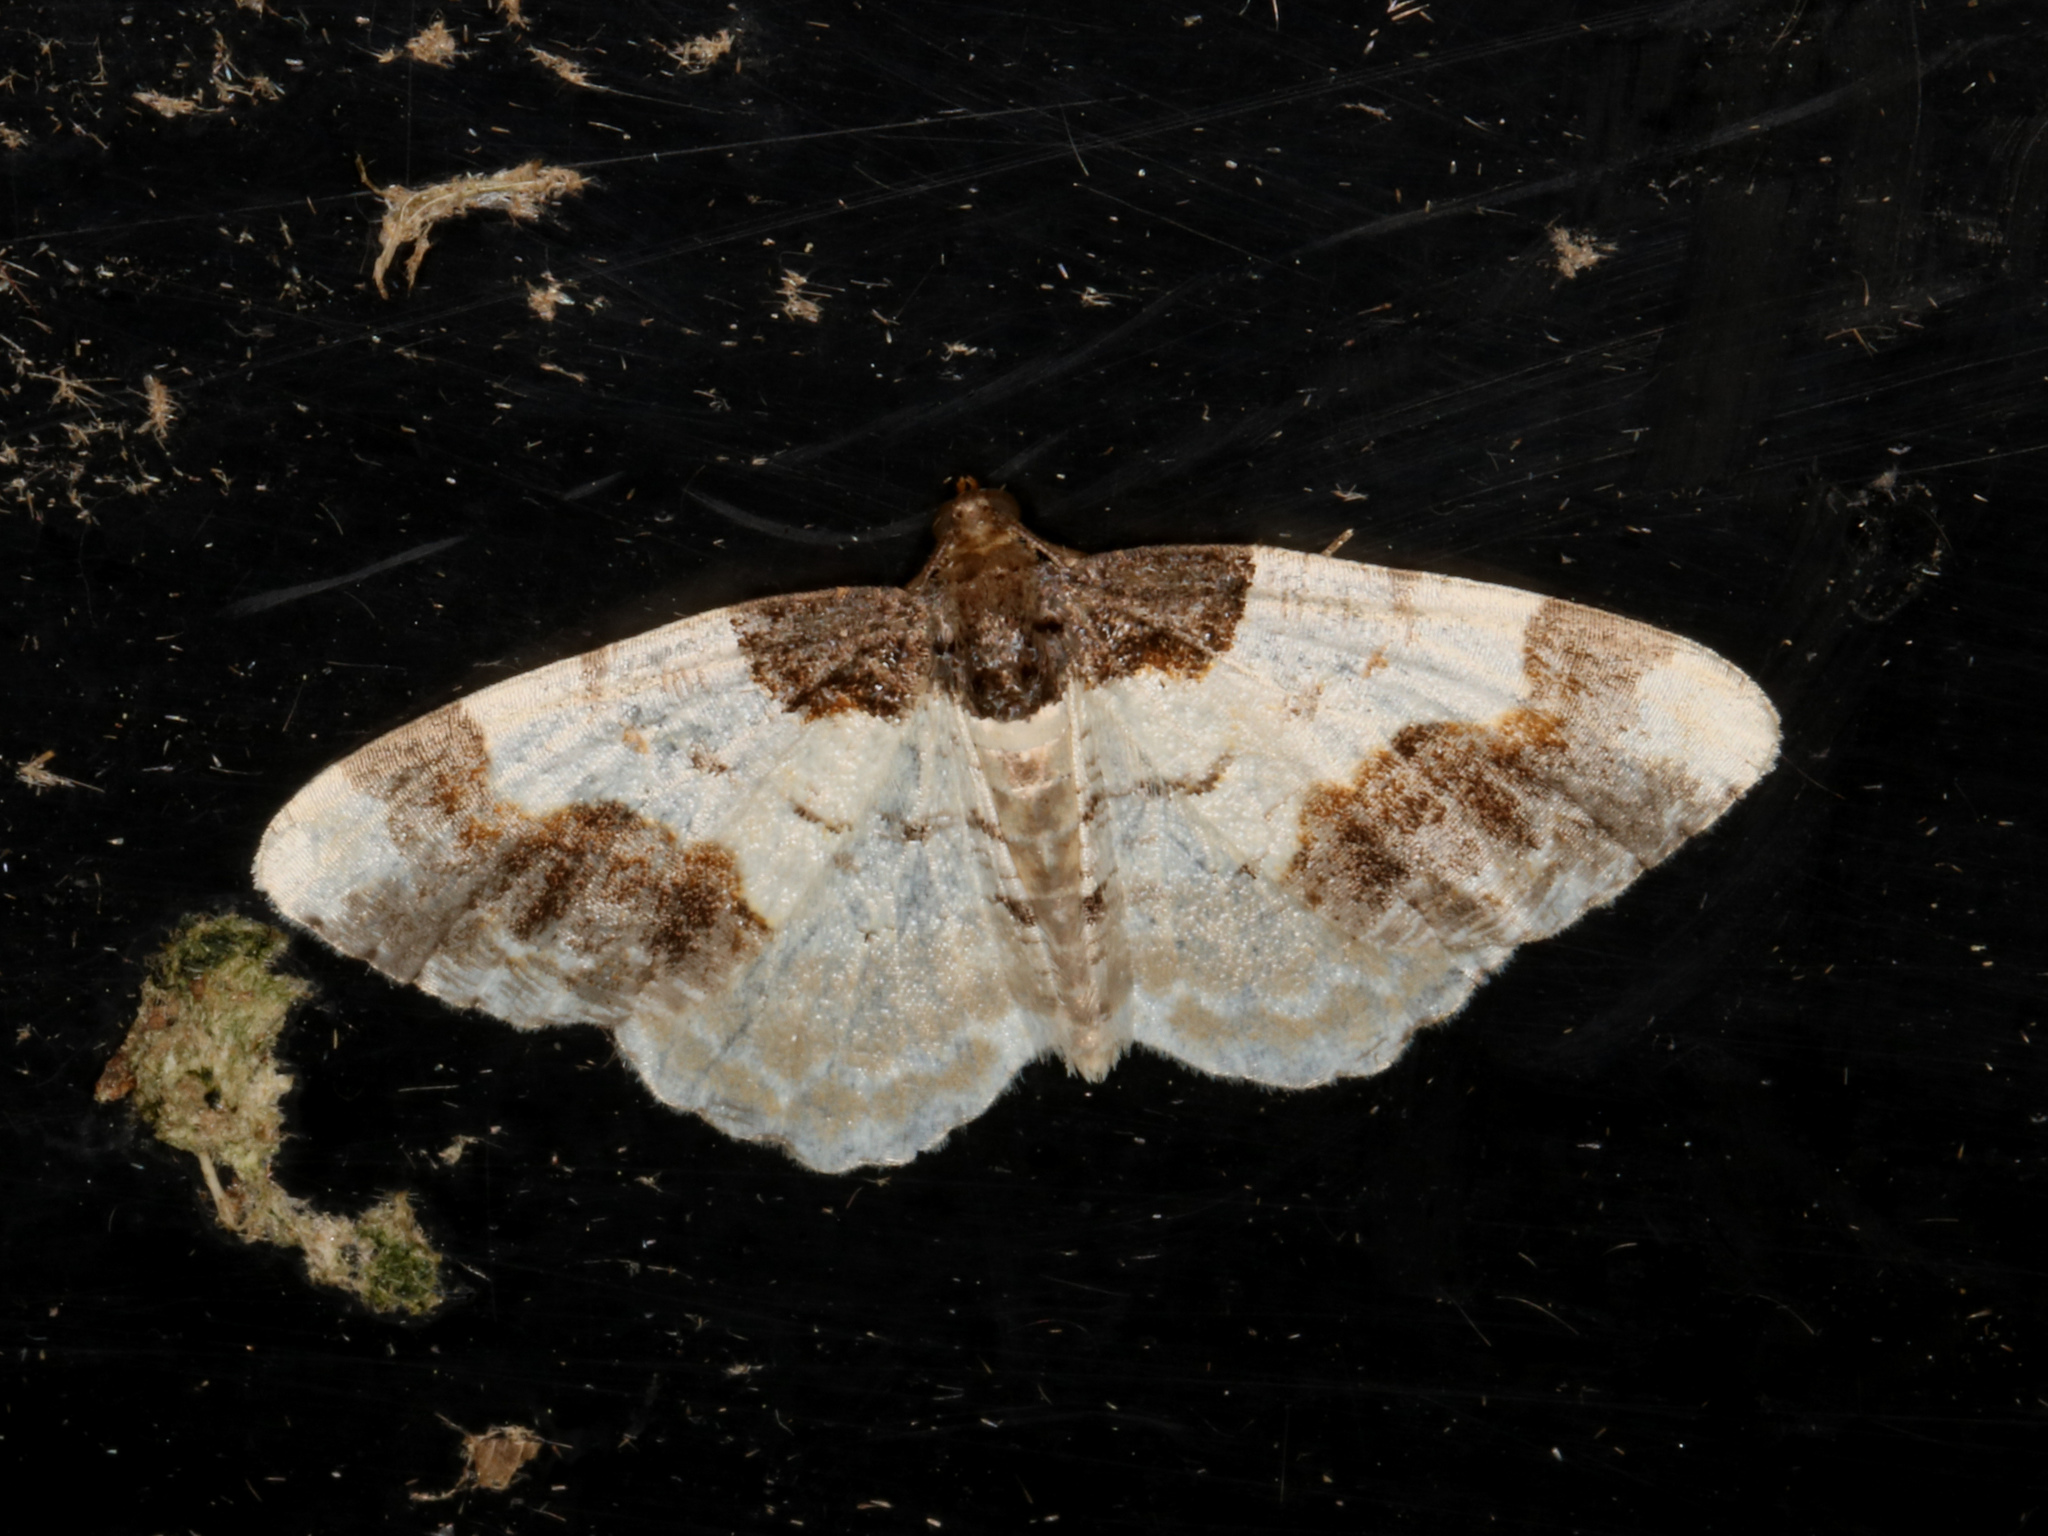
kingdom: Animalia
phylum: Arthropoda
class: Insecta
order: Lepidoptera
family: Geometridae
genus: Ligdia
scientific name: Ligdia adustata
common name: Scorched carpet
